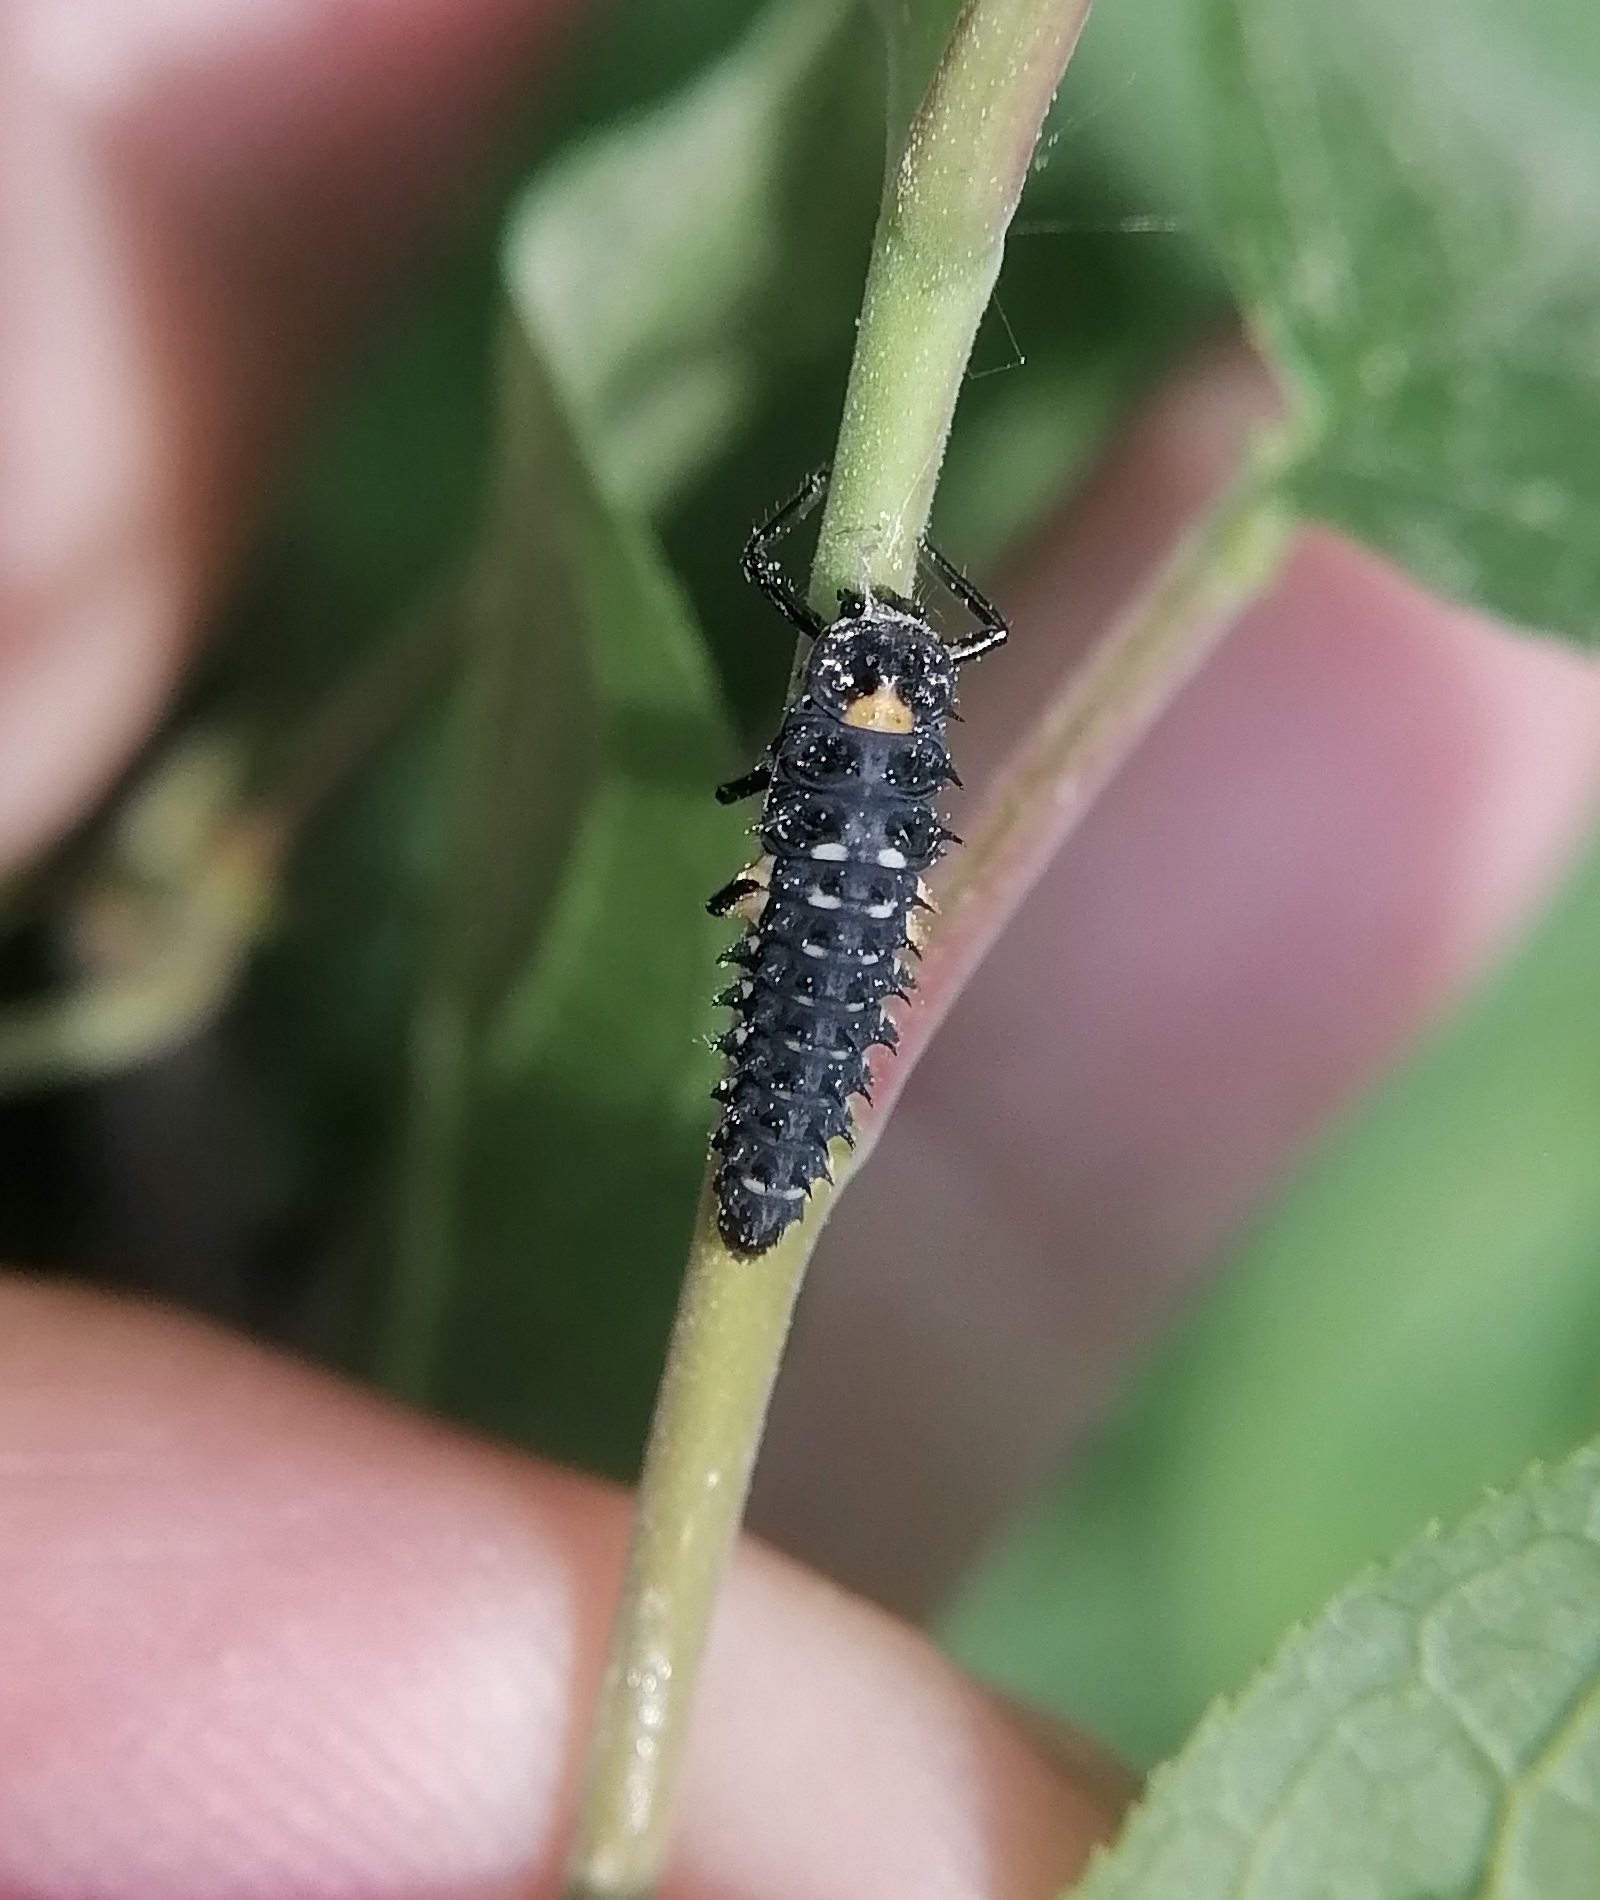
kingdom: Animalia
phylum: Arthropoda
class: Insecta
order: Coleoptera
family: Coccinellidae
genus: Anatis
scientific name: Anatis ocellata
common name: Eyed ladybird
